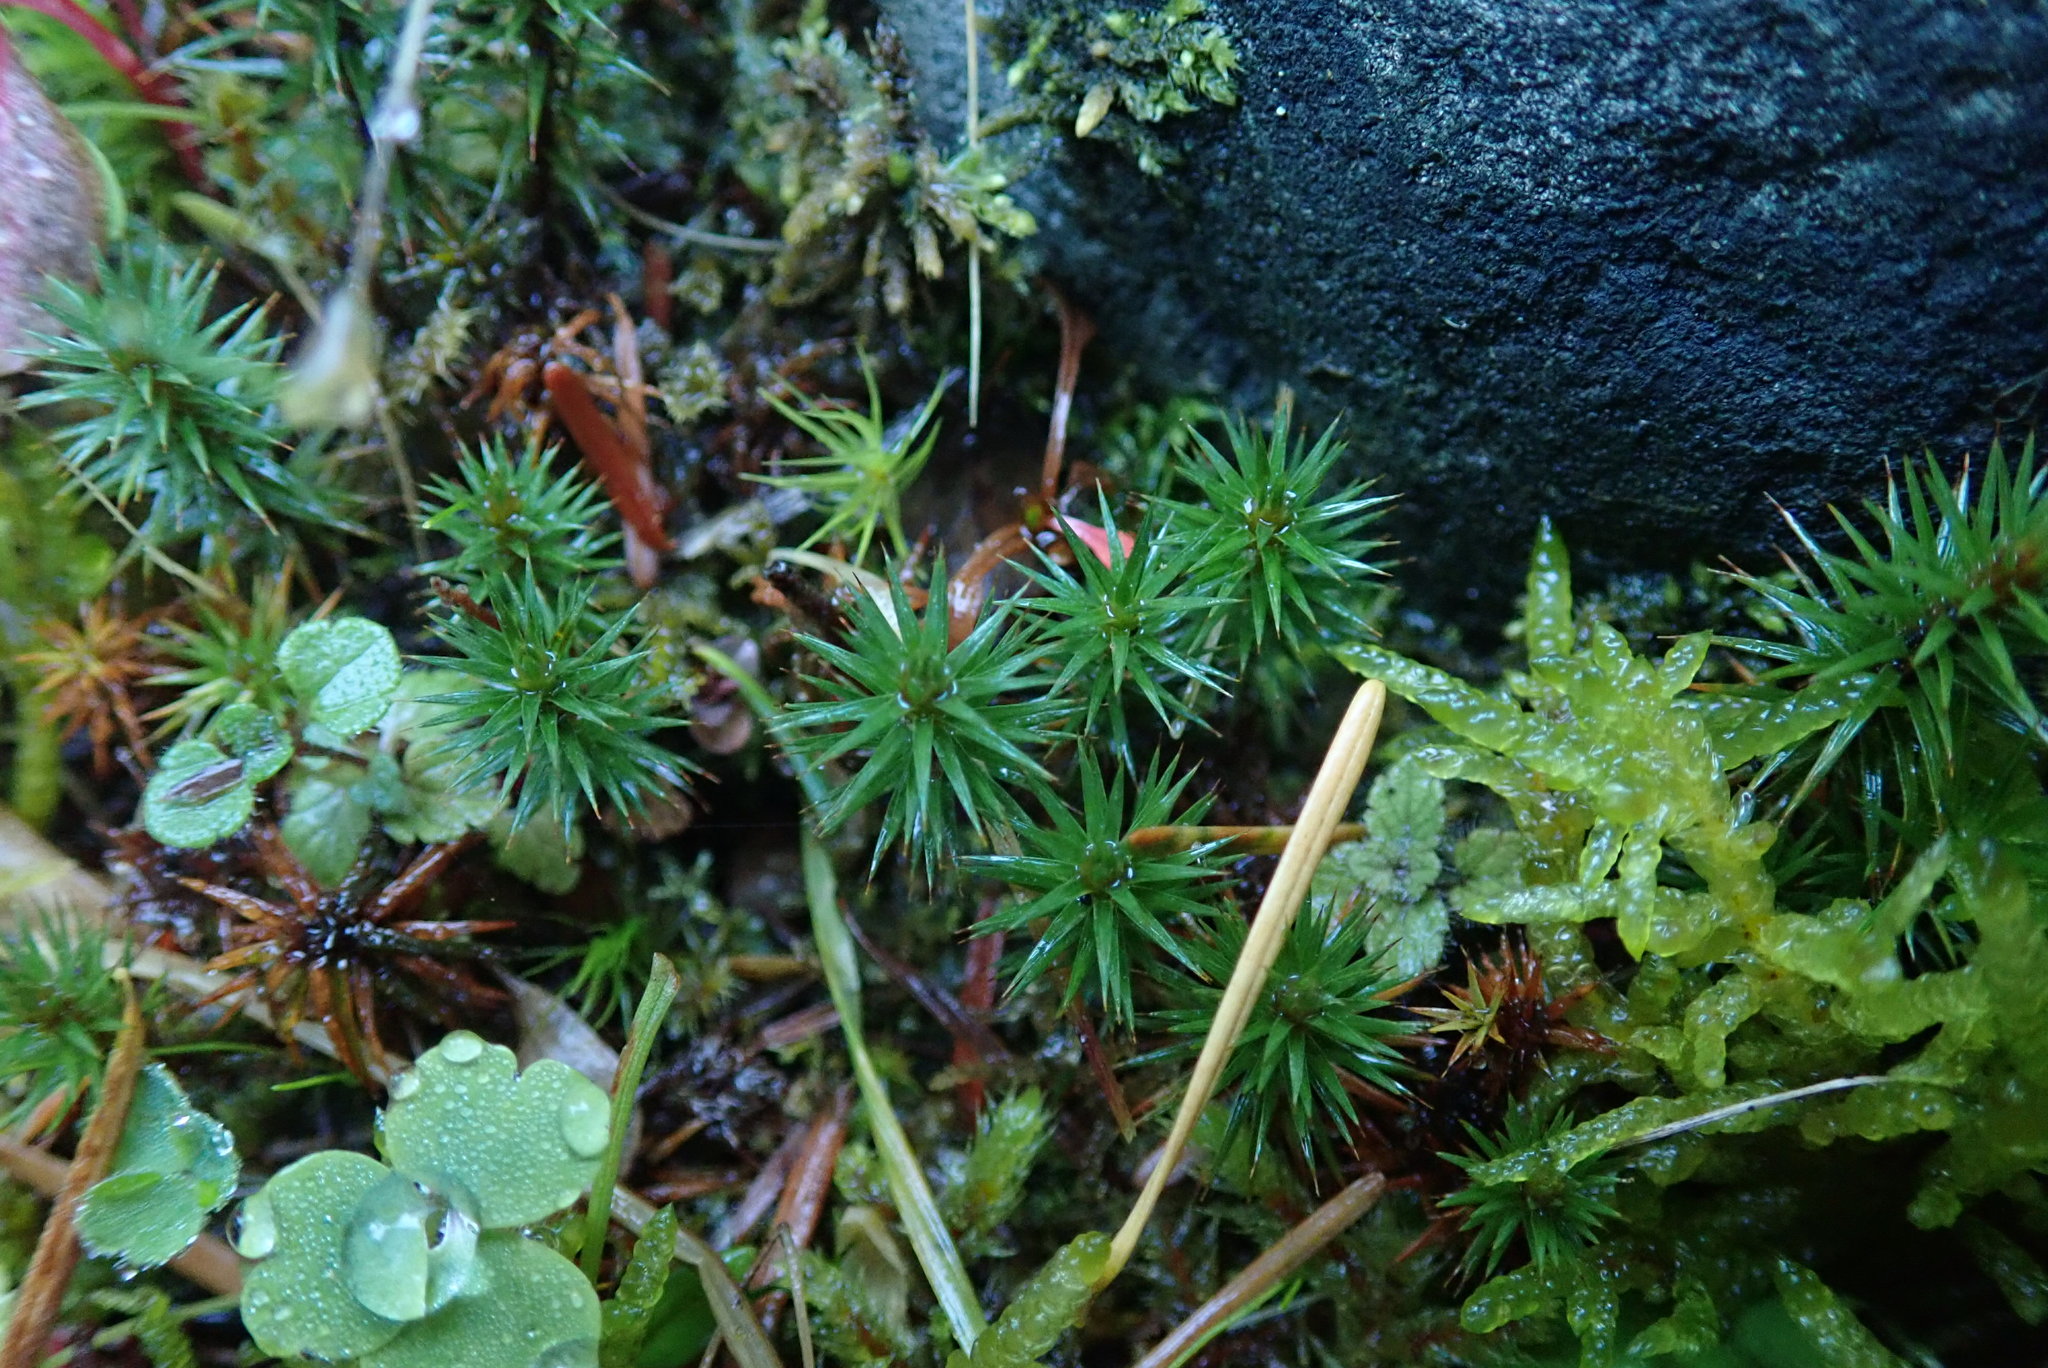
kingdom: Plantae
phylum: Bryophyta
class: Polytrichopsida
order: Polytrichales
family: Polytrichaceae
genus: Polytrichum
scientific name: Polytrichum juniperinum
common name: Juniper haircap moss
